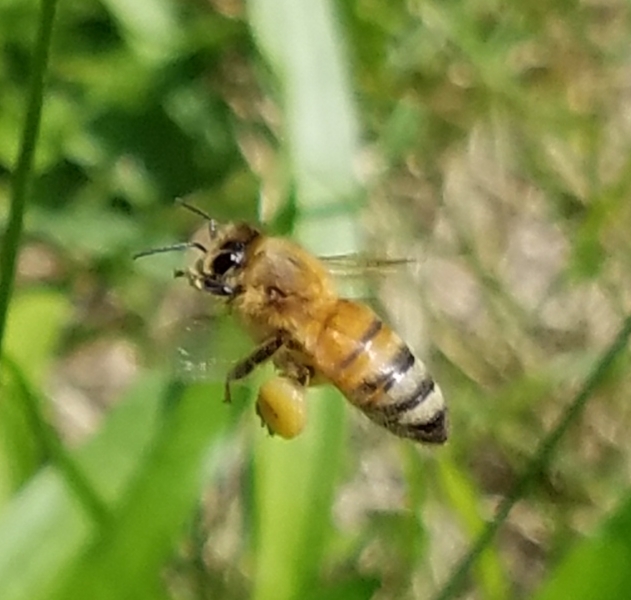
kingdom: Animalia
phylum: Arthropoda
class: Insecta
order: Hymenoptera
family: Apidae
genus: Apis
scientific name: Apis mellifera
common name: Honey bee
